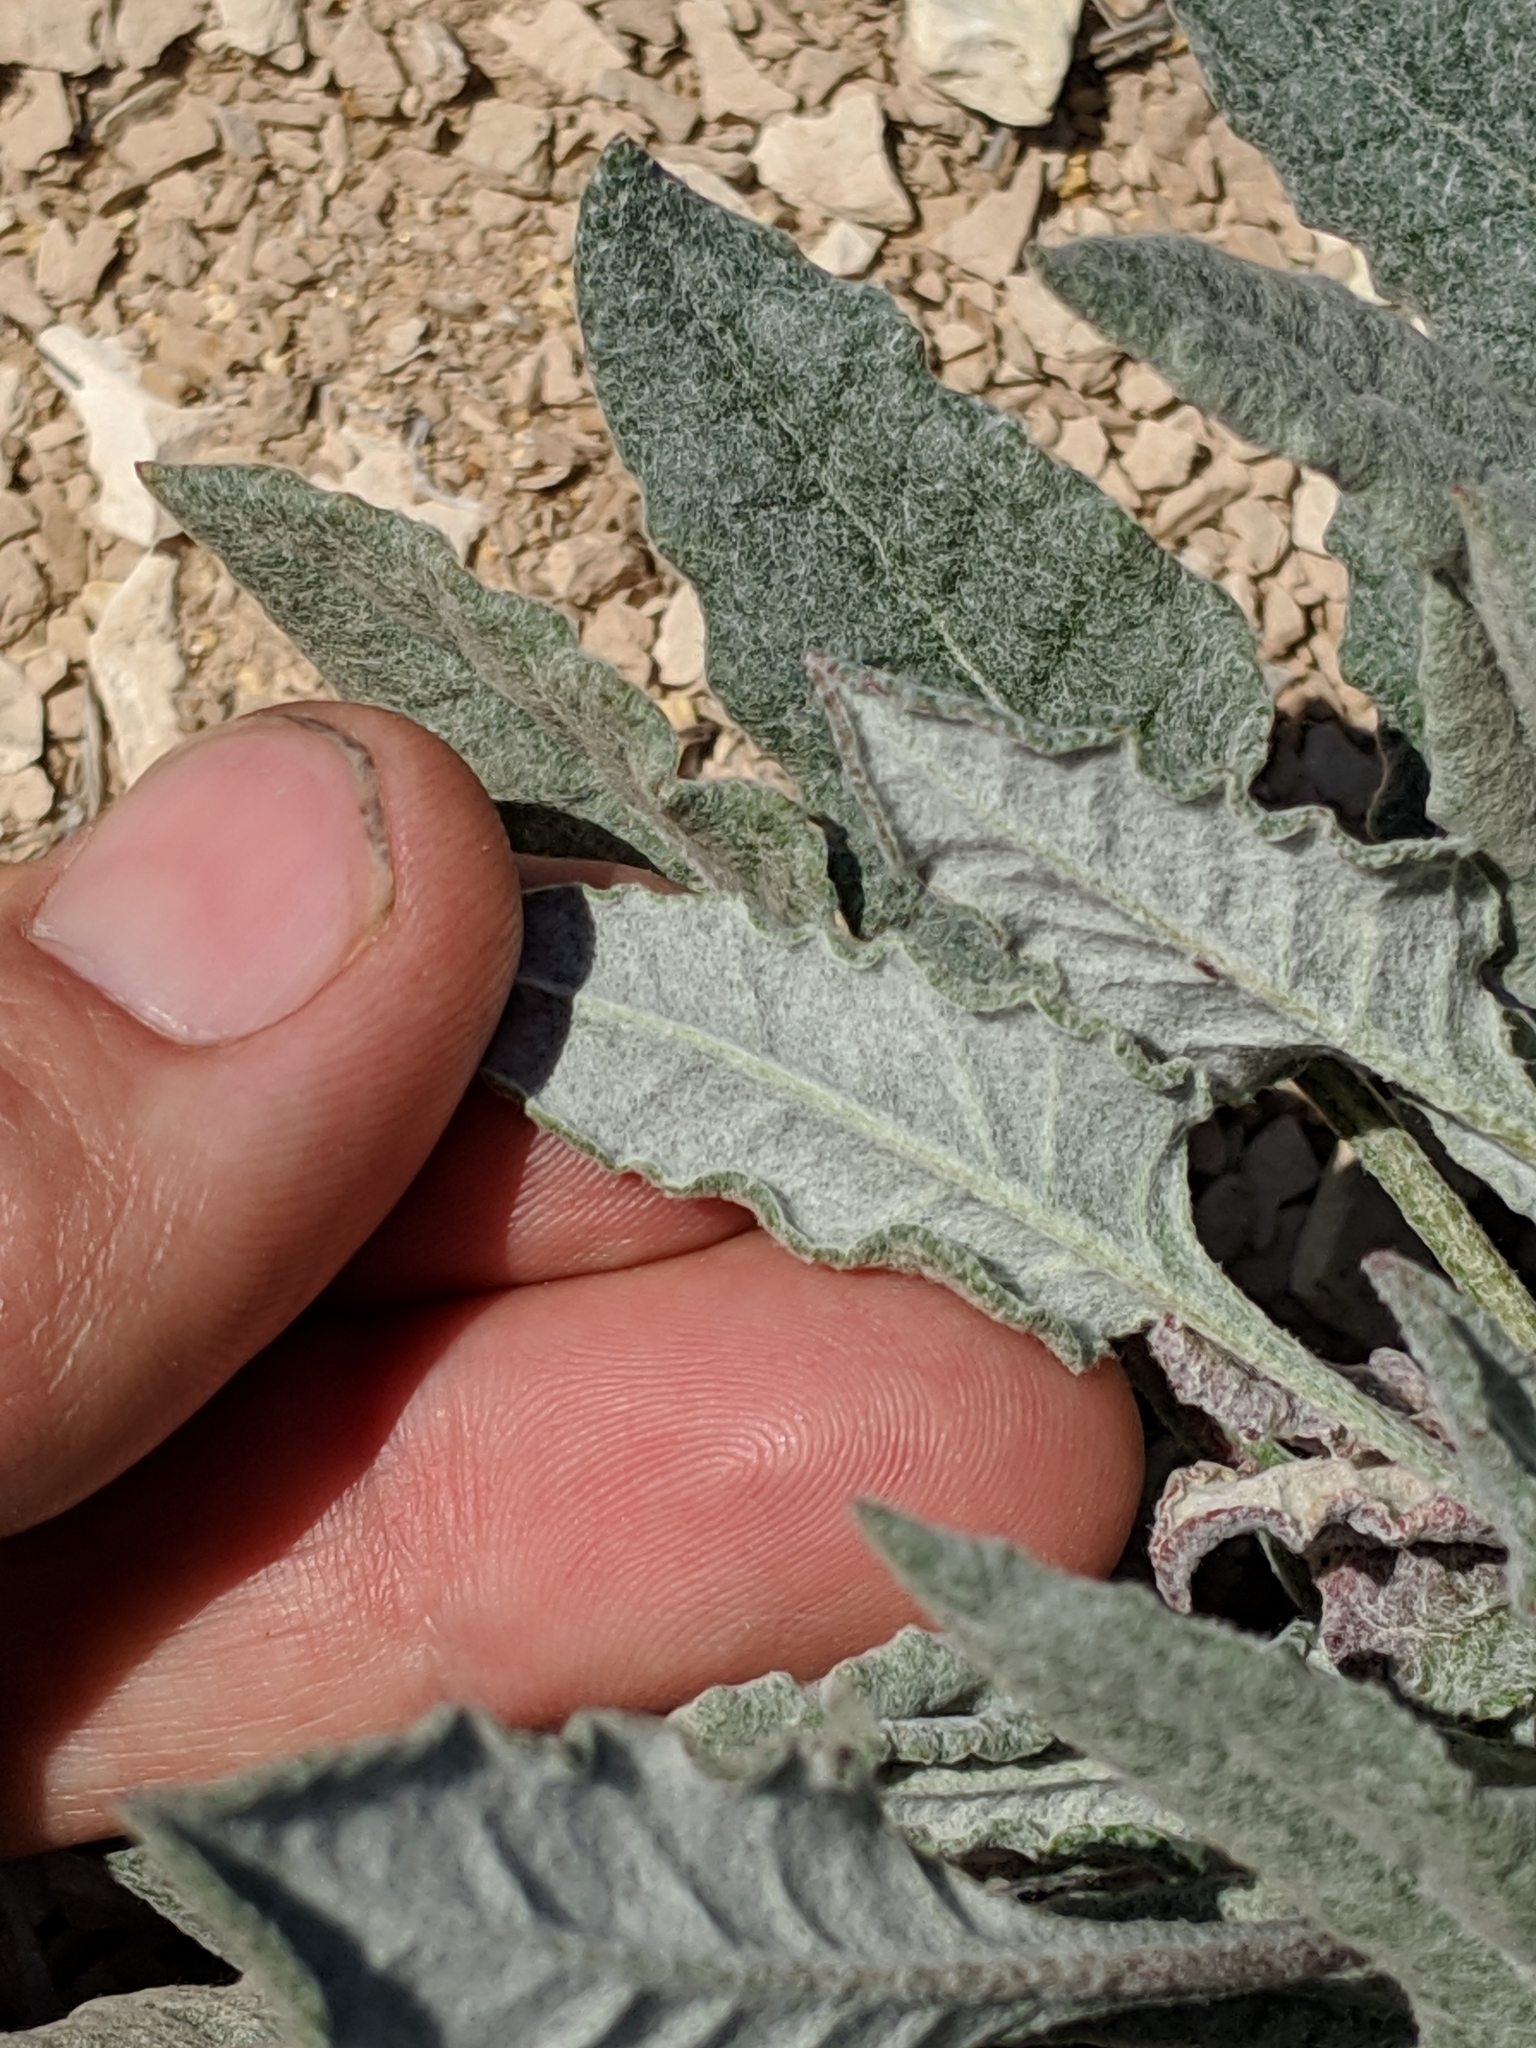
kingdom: Plantae
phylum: Tracheophyta
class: Magnoliopsida
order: Caryophyllales
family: Polygonaceae
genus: Eriogonum
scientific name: Eriogonum nudum
